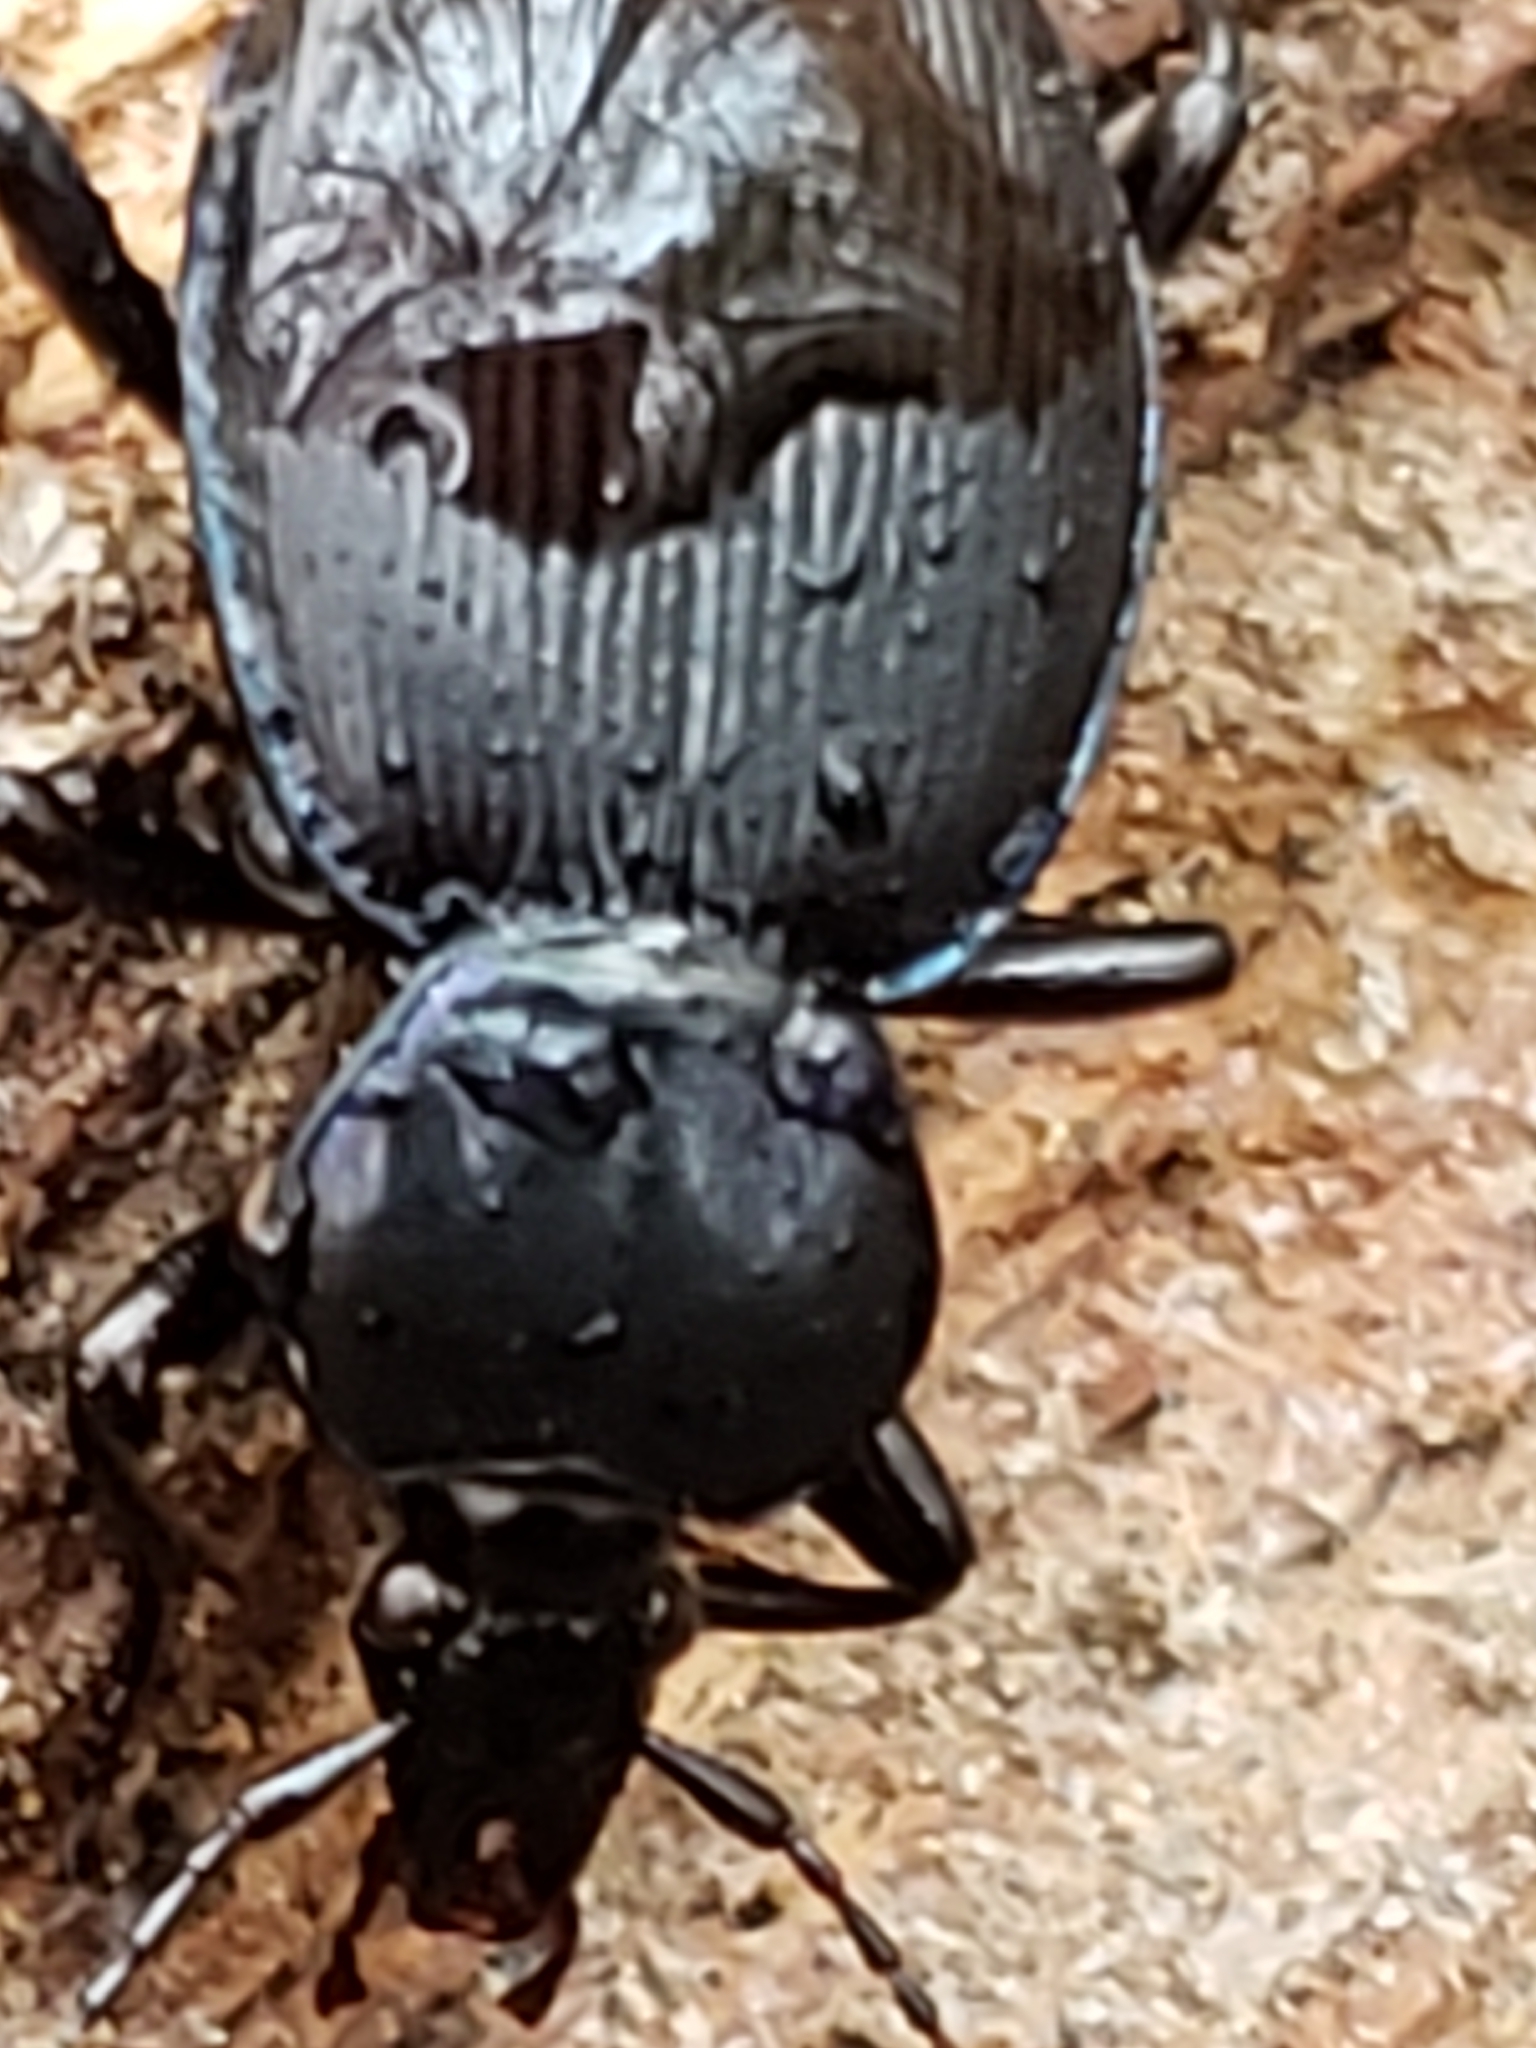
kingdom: Animalia
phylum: Arthropoda
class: Insecta
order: Coleoptera
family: Carabidae
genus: Sphaeroderus
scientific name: Sphaeroderus stenostomus
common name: Small snail-eating ground beetle
